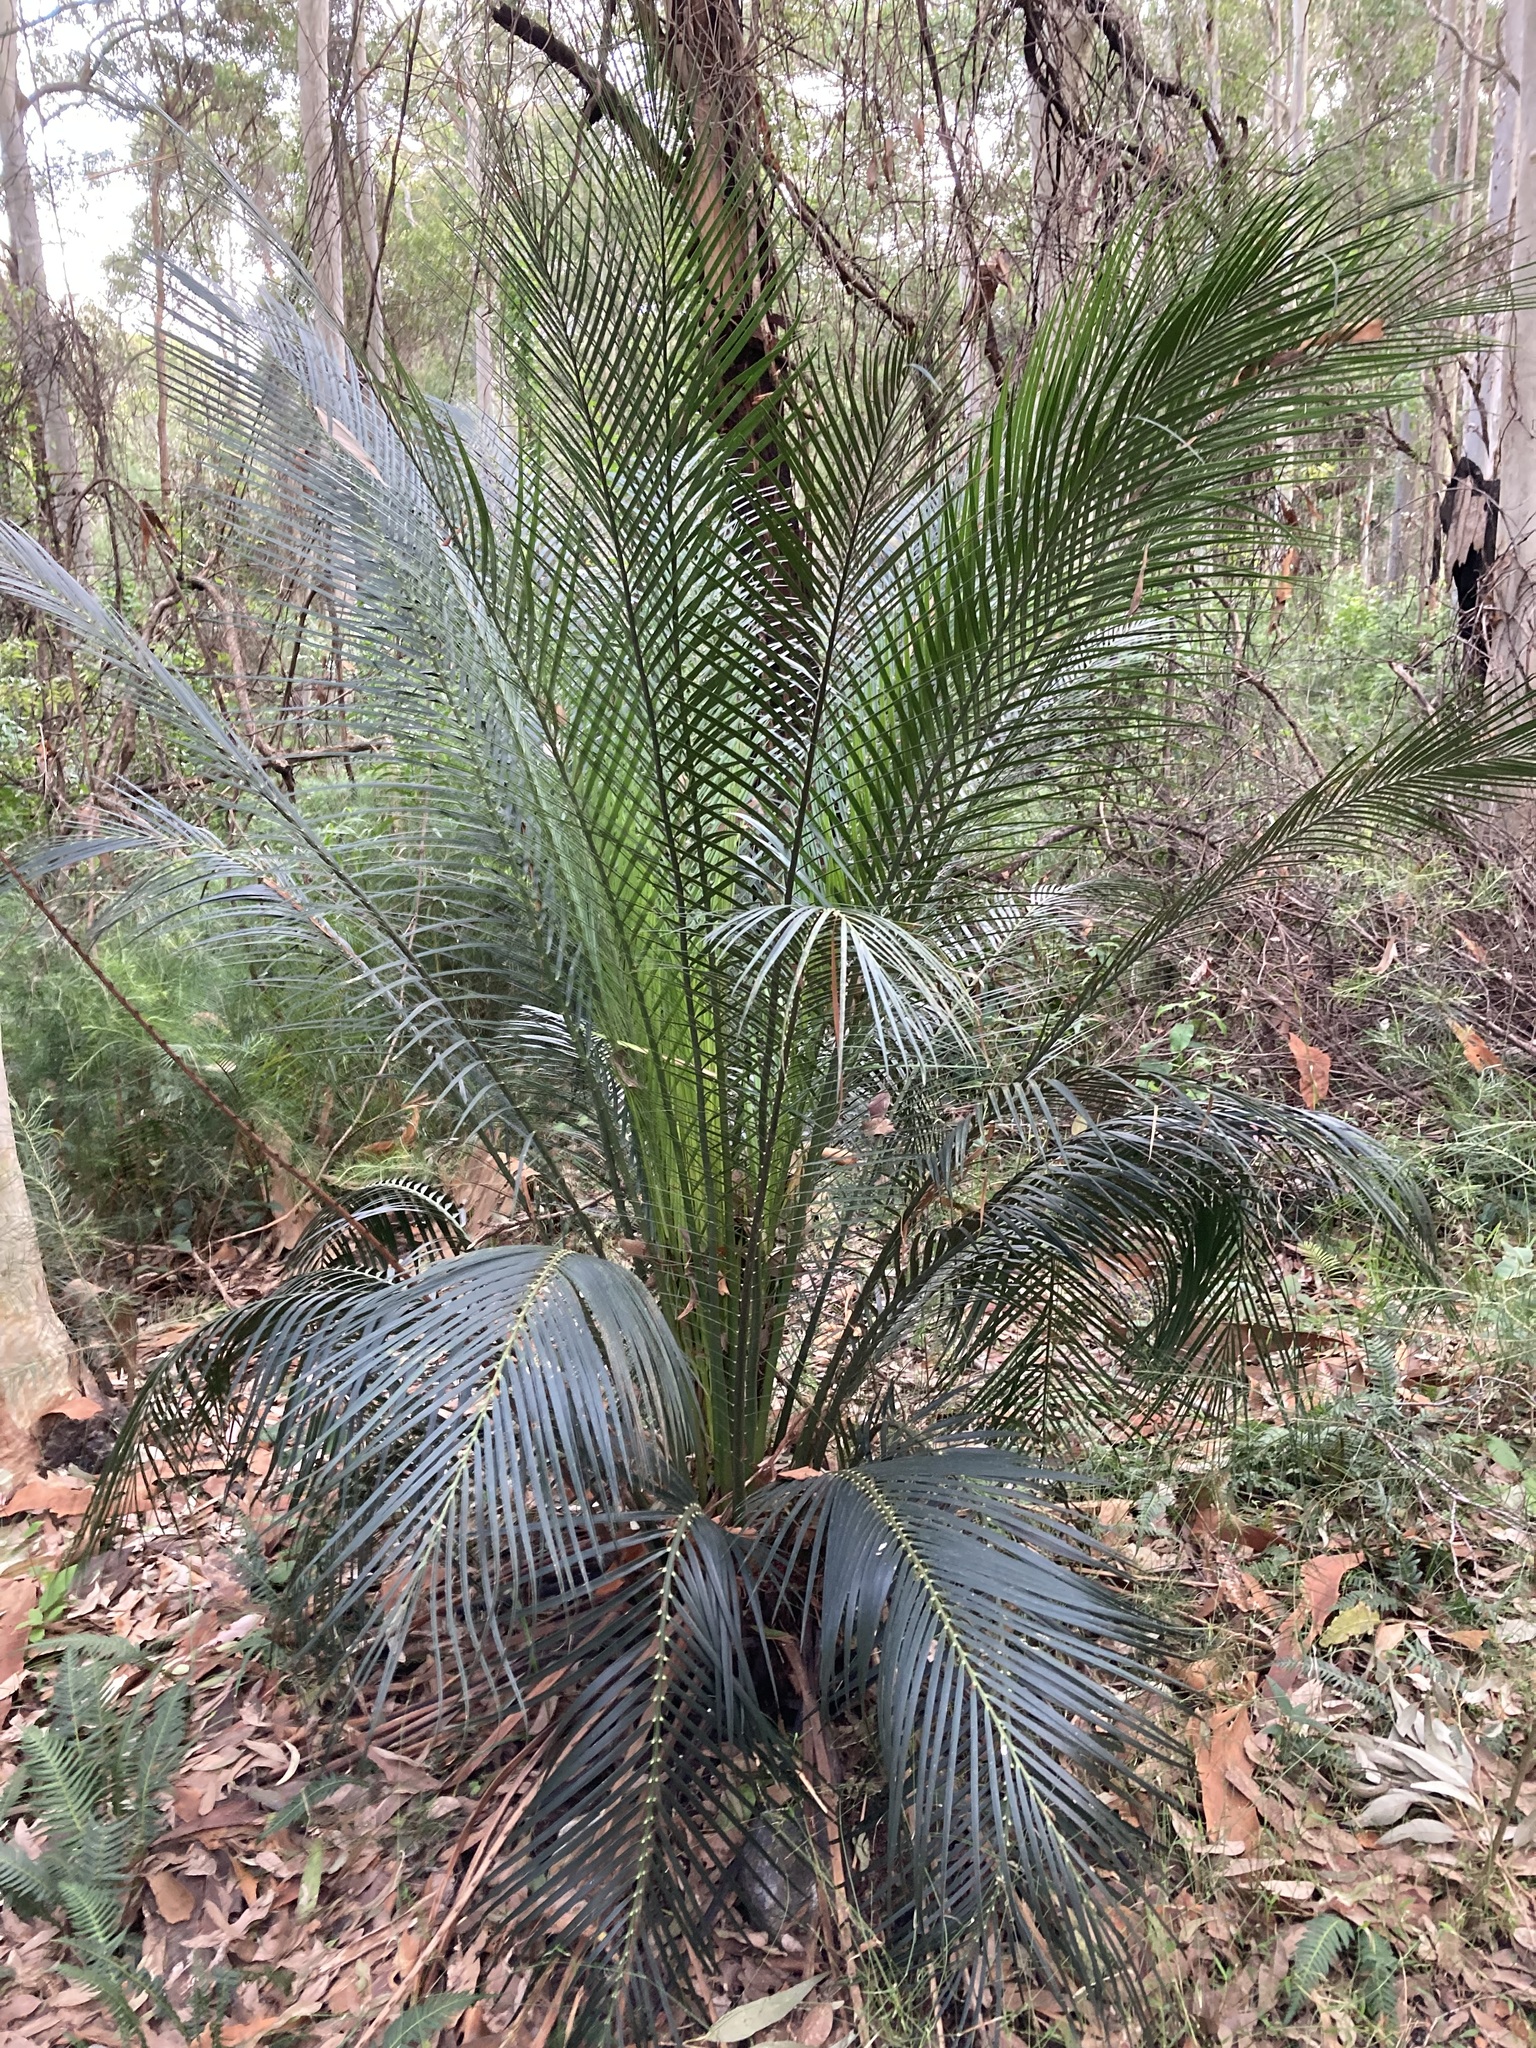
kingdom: Plantae
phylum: Tracheophyta
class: Cycadopsida
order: Cycadales
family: Zamiaceae
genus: Macrozamia
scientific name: Macrozamia communis
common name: Burrawong
